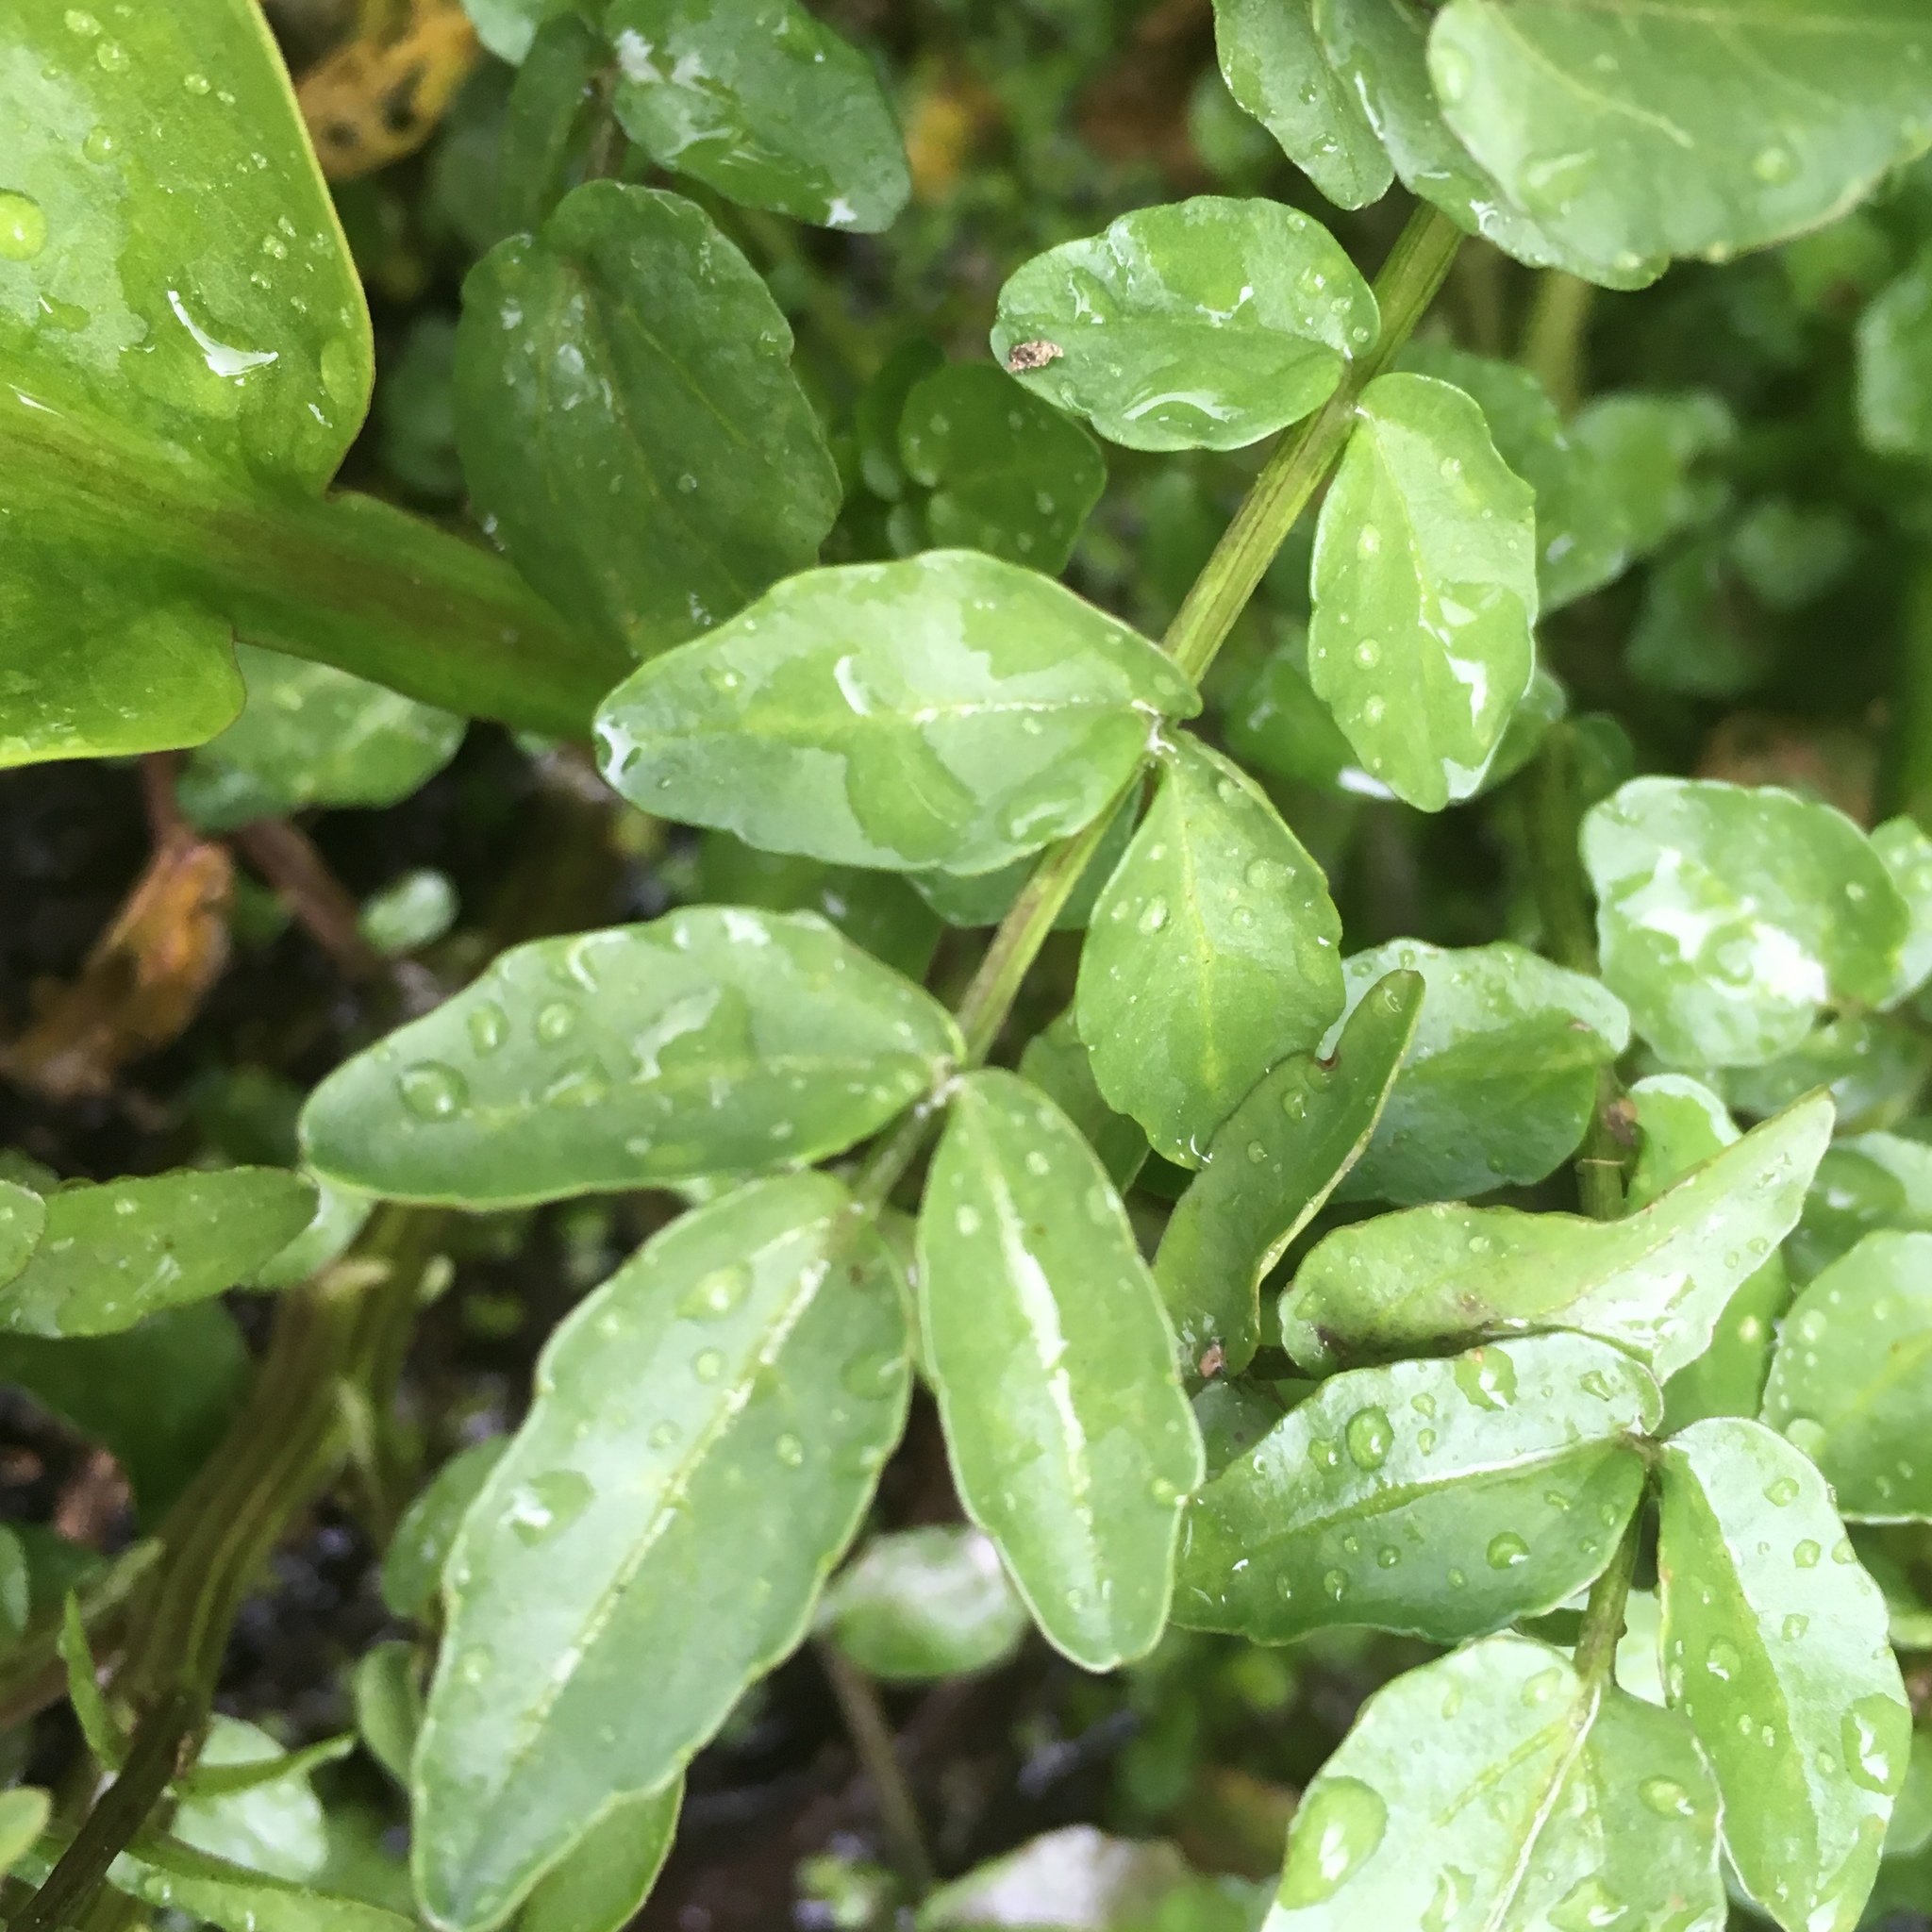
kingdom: Plantae
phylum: Tracheophyta
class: Magnoliopsida
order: Brassicales
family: Brassicaceae
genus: Nasturtium
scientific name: Nasturtium officinale
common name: Watercress
